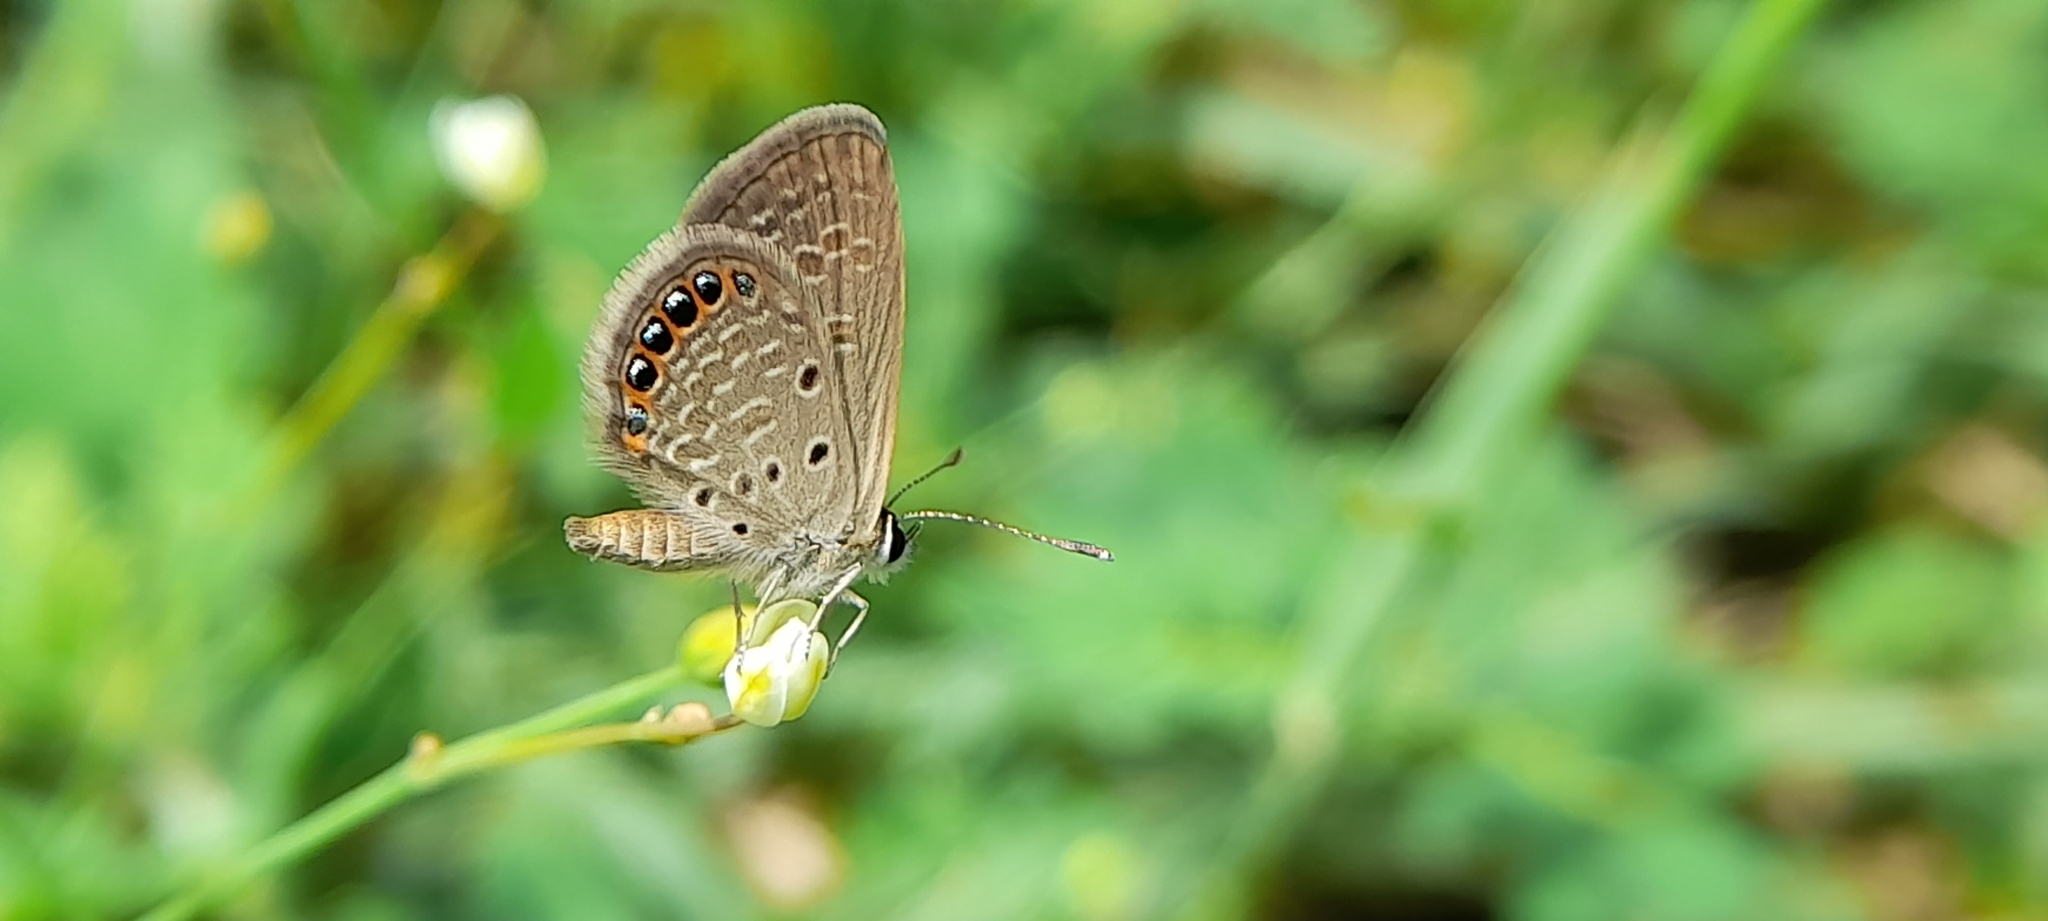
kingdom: Animalia
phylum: Arthropoda
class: Insecta
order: Lepidoptera
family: Lycaenidae
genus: Freyeria
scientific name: Freyeria putli
